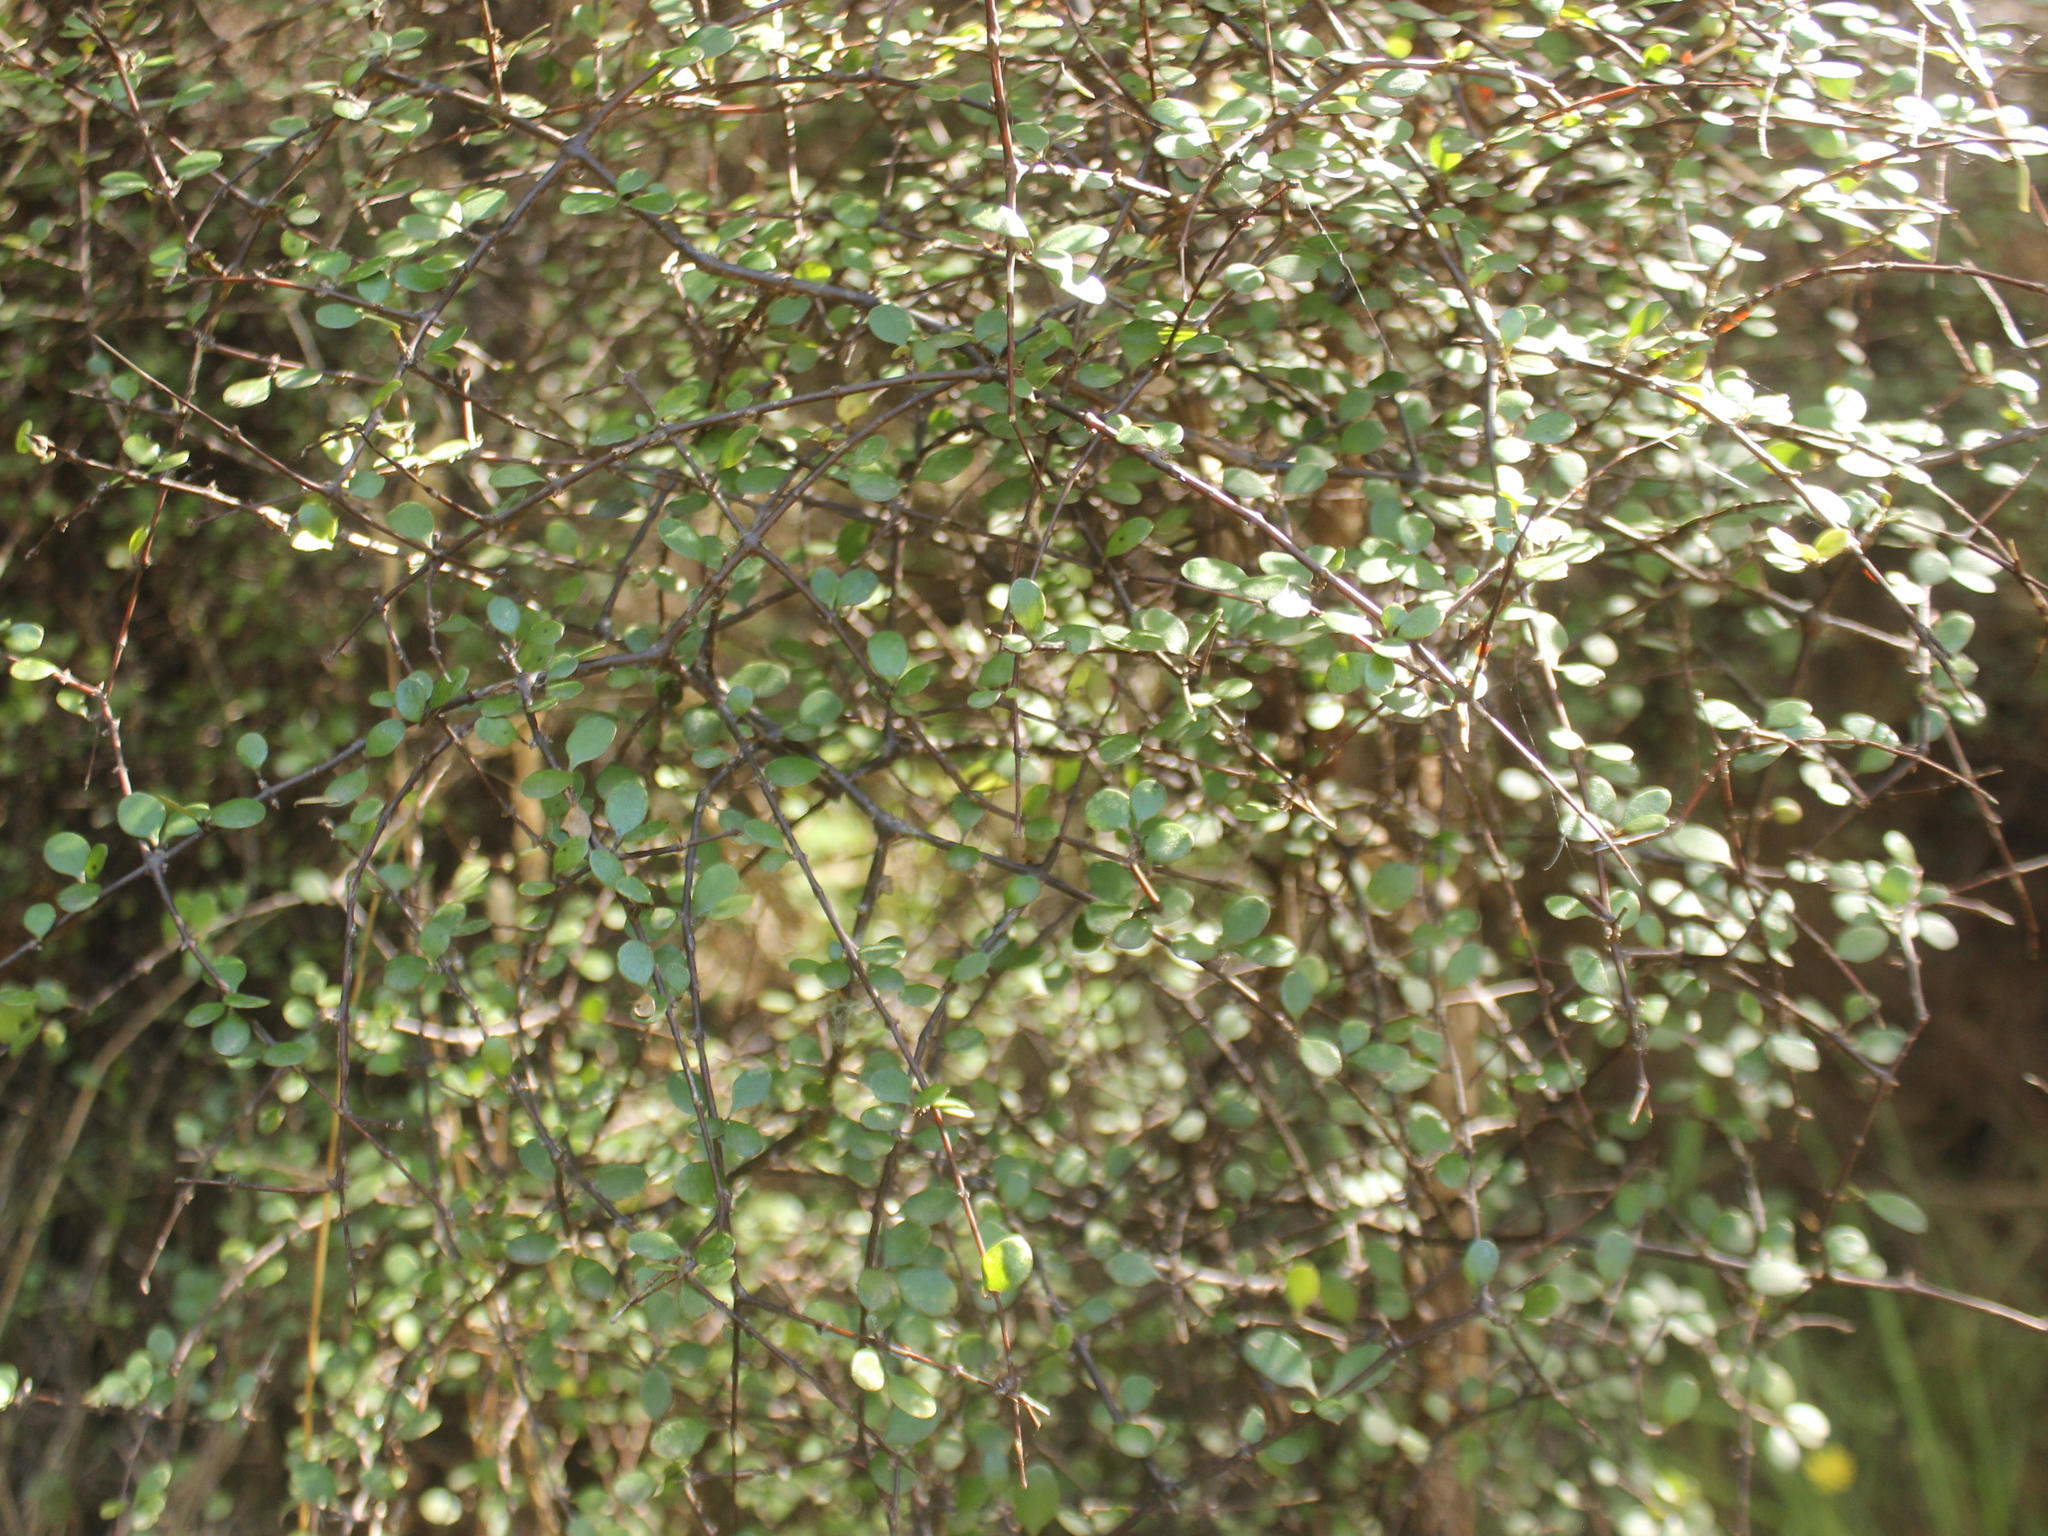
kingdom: Plantae
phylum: Tracheophyta
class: Magnoliopsida
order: Gentianales
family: Rubiaceae
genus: Coprosma
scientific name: Coprosma crassifolia
